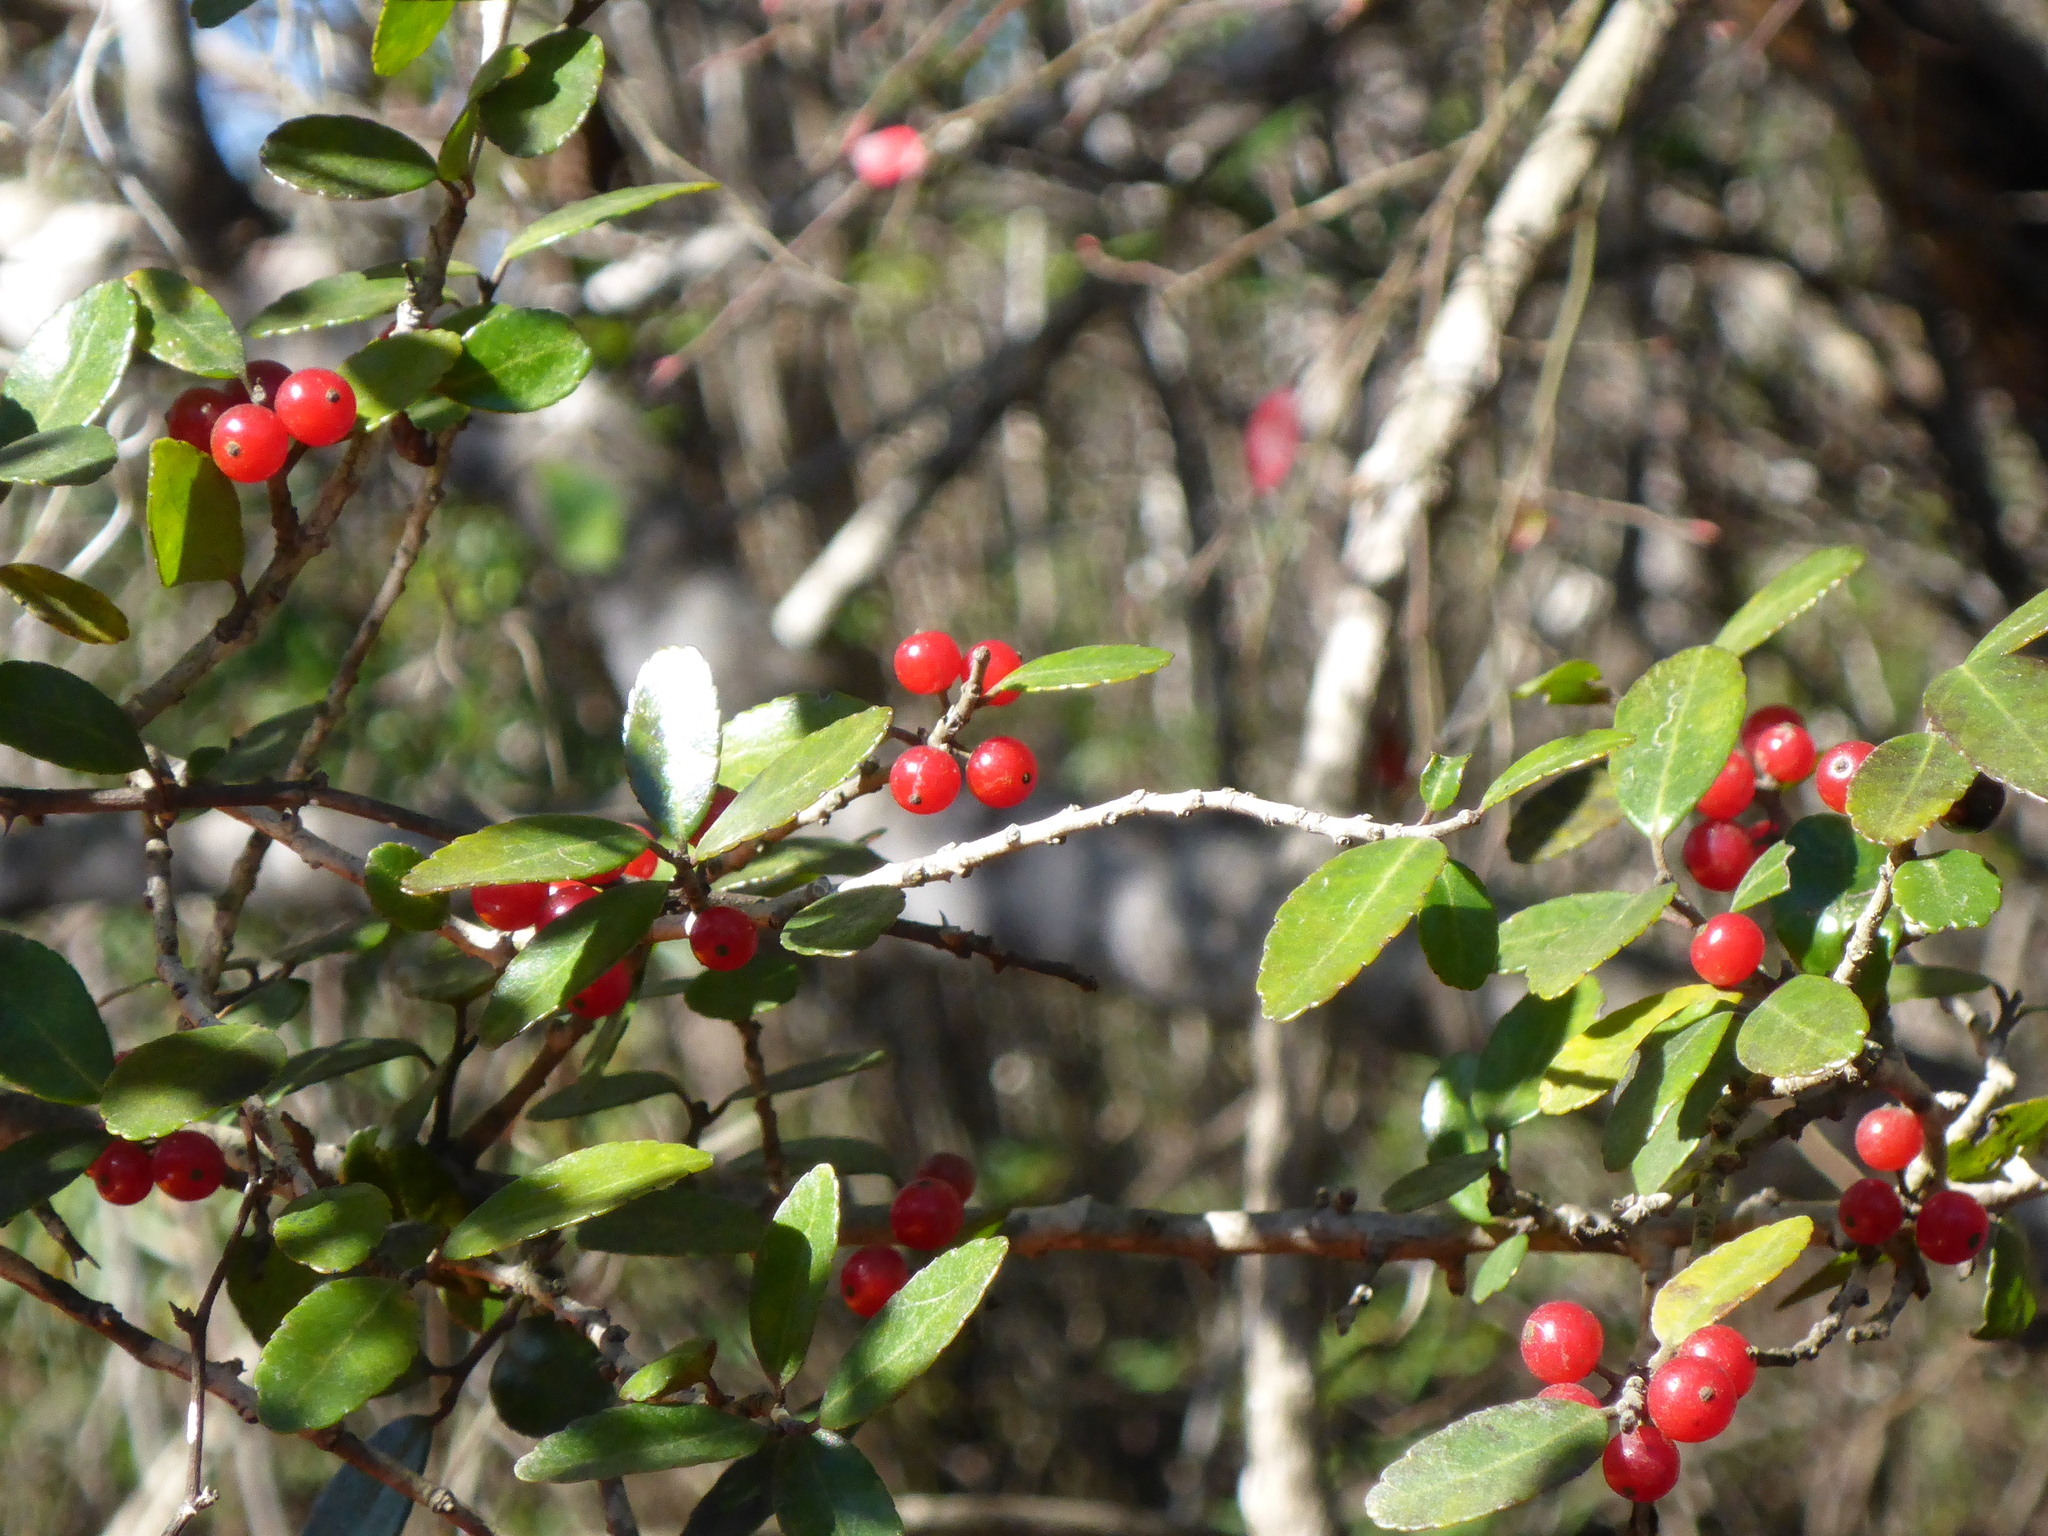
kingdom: Plantae
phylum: Tracheophyta
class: Magnoliopsida
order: Aquifoliales
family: Aquifoliaceae
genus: Ilex
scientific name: Ilex vomitoria
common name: Yaupon holly
